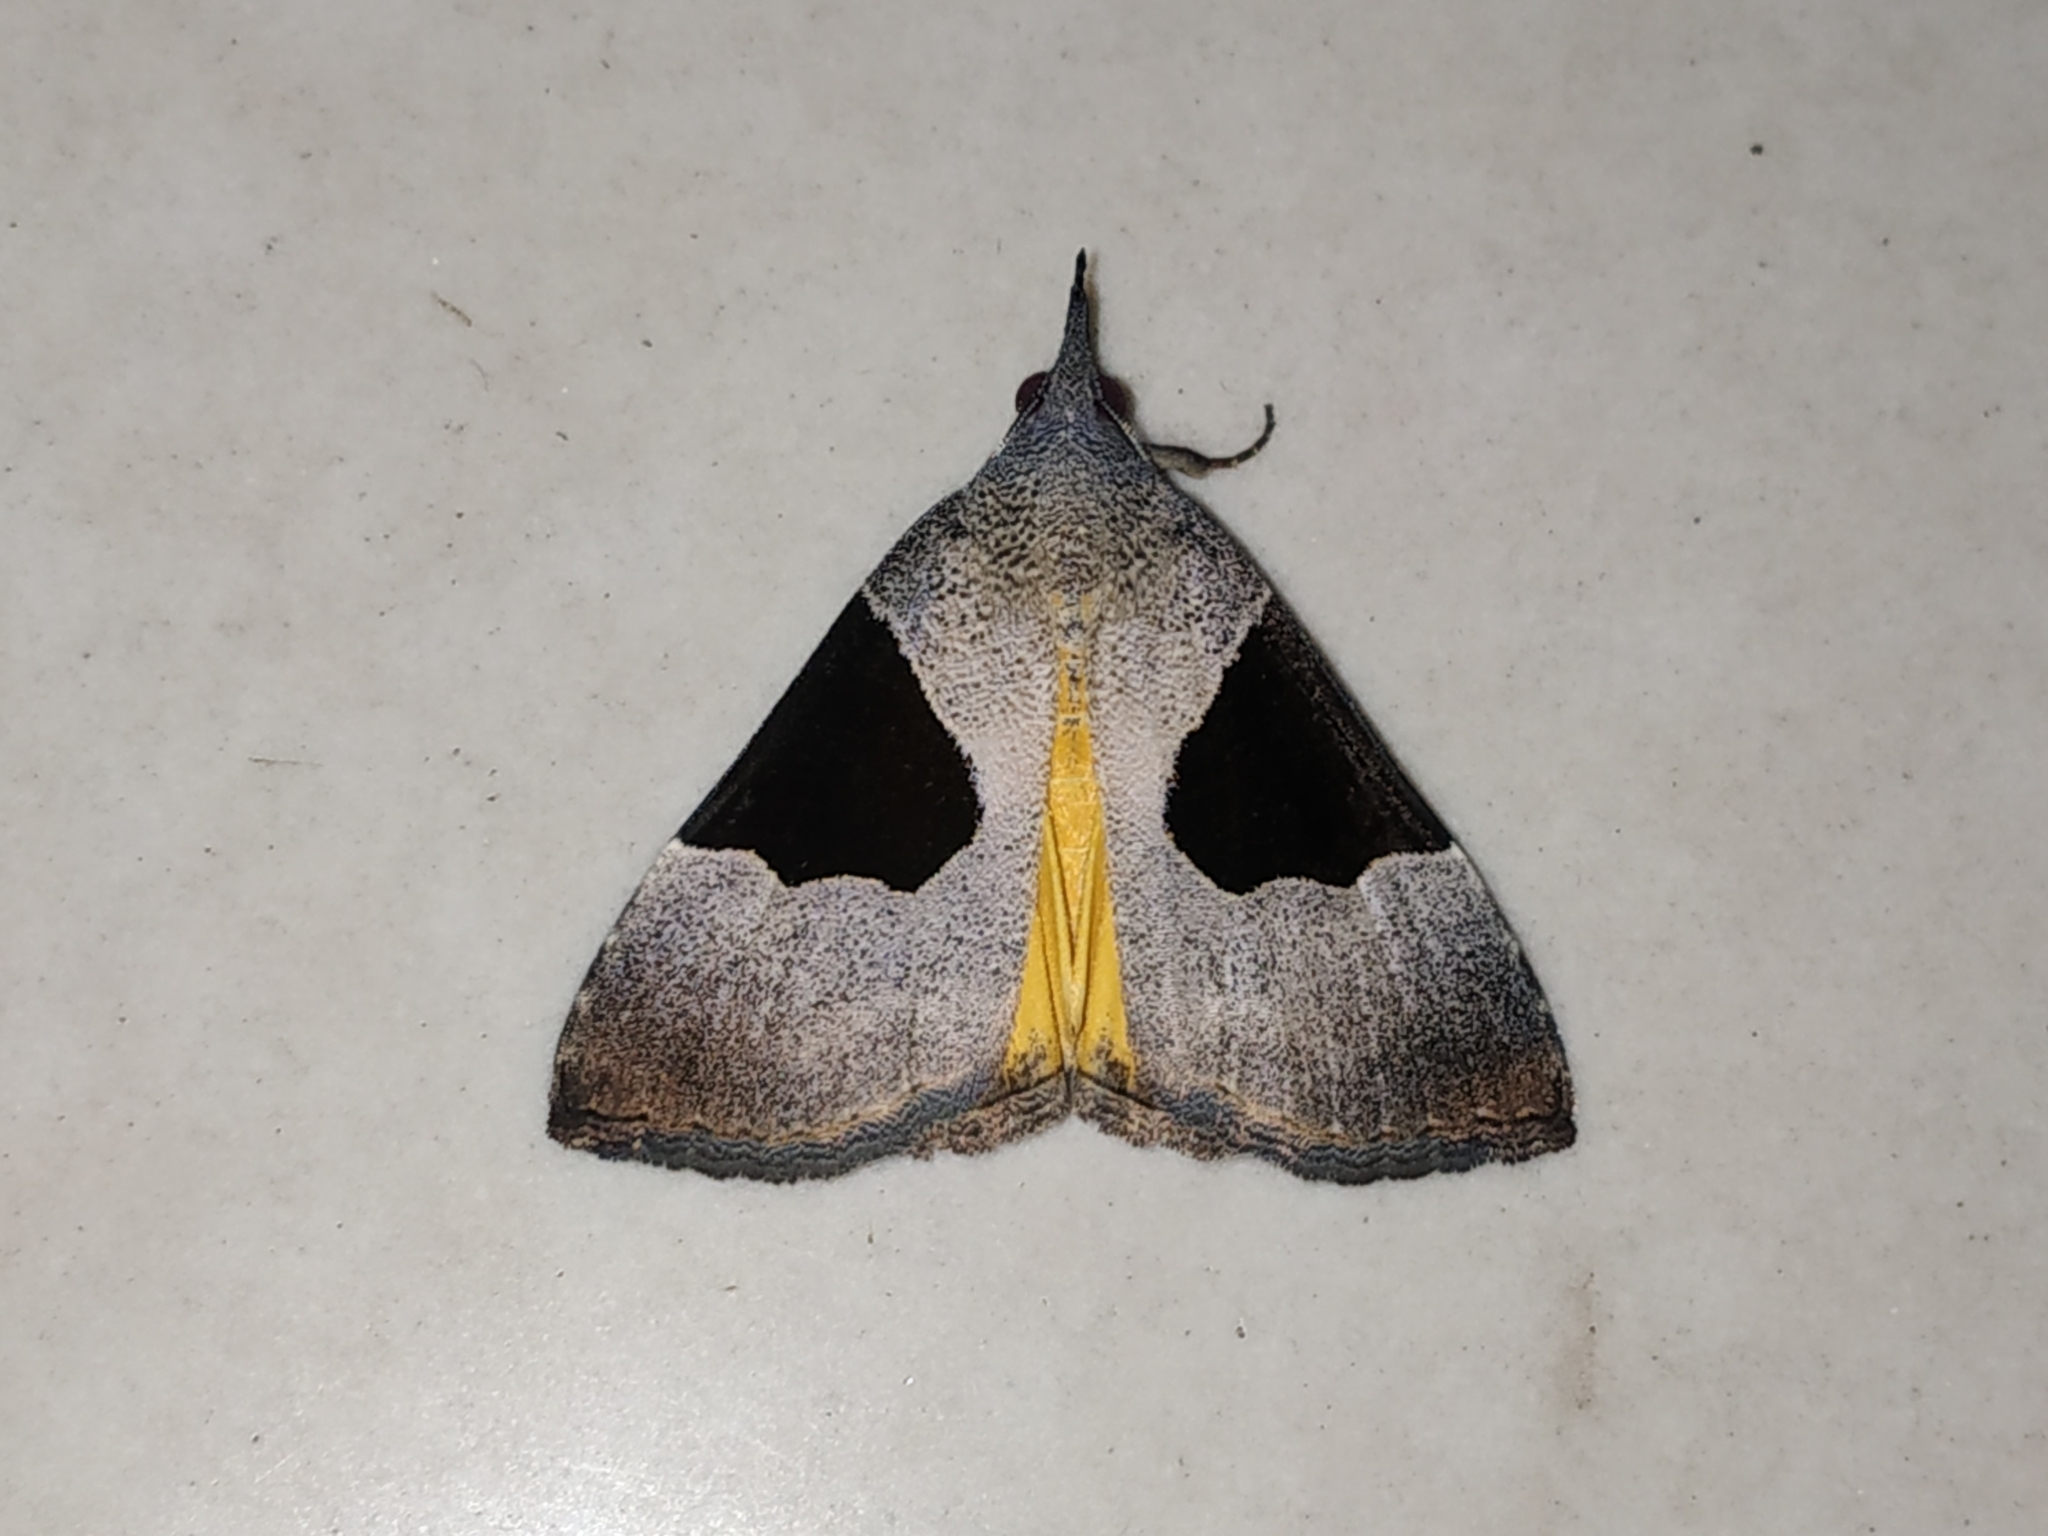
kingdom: Animalia
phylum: Arthropoda
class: Insecta
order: Lepidoptera
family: Erebidae
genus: Hypena
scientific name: Hypena Dichromia sagitta
